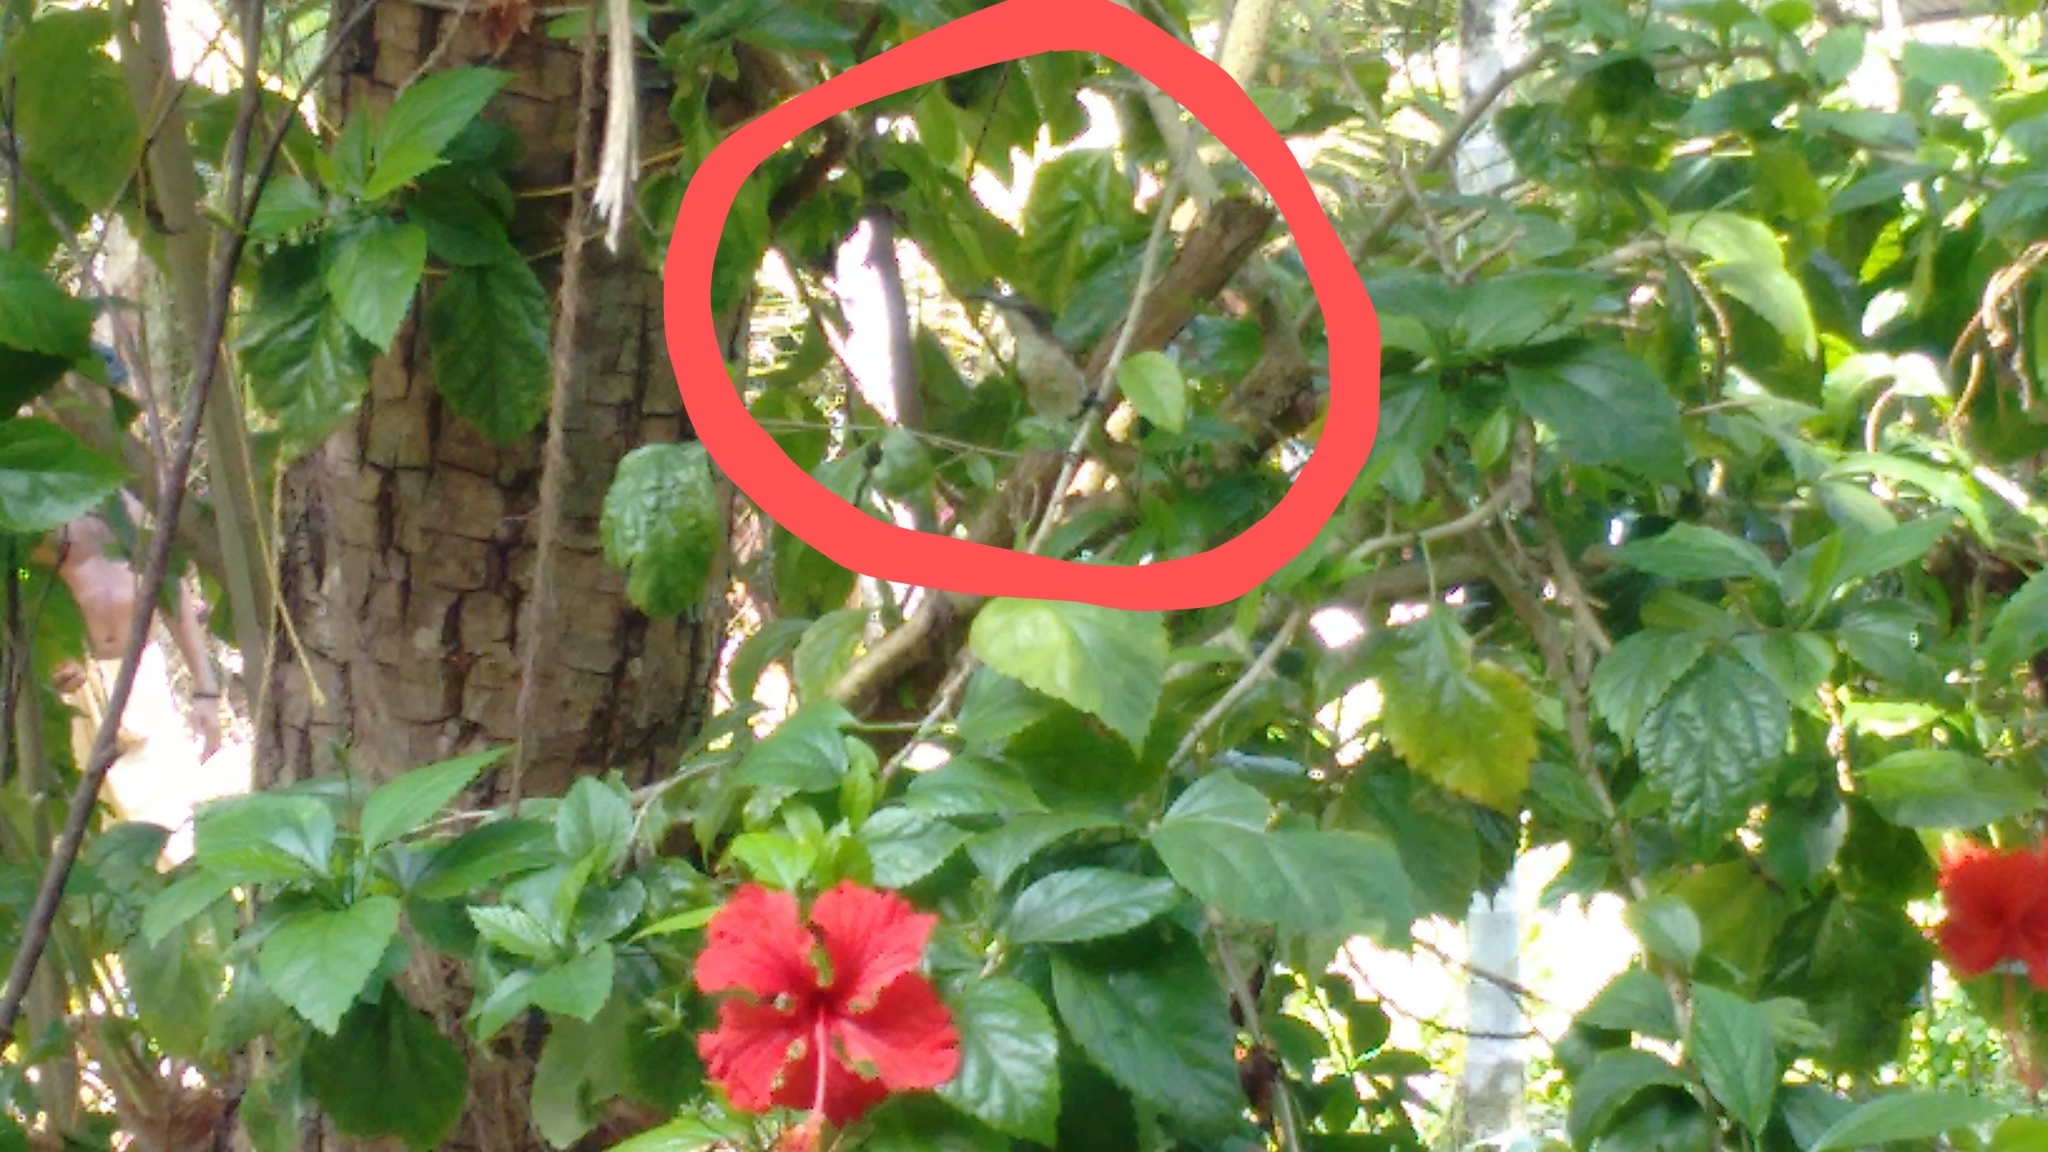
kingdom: Animalia
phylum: Chordata
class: Aves
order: Passeriformes
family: Nectariniidae
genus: Cinnyris
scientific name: Cinnyris lotenius
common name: Loten's sunbird
